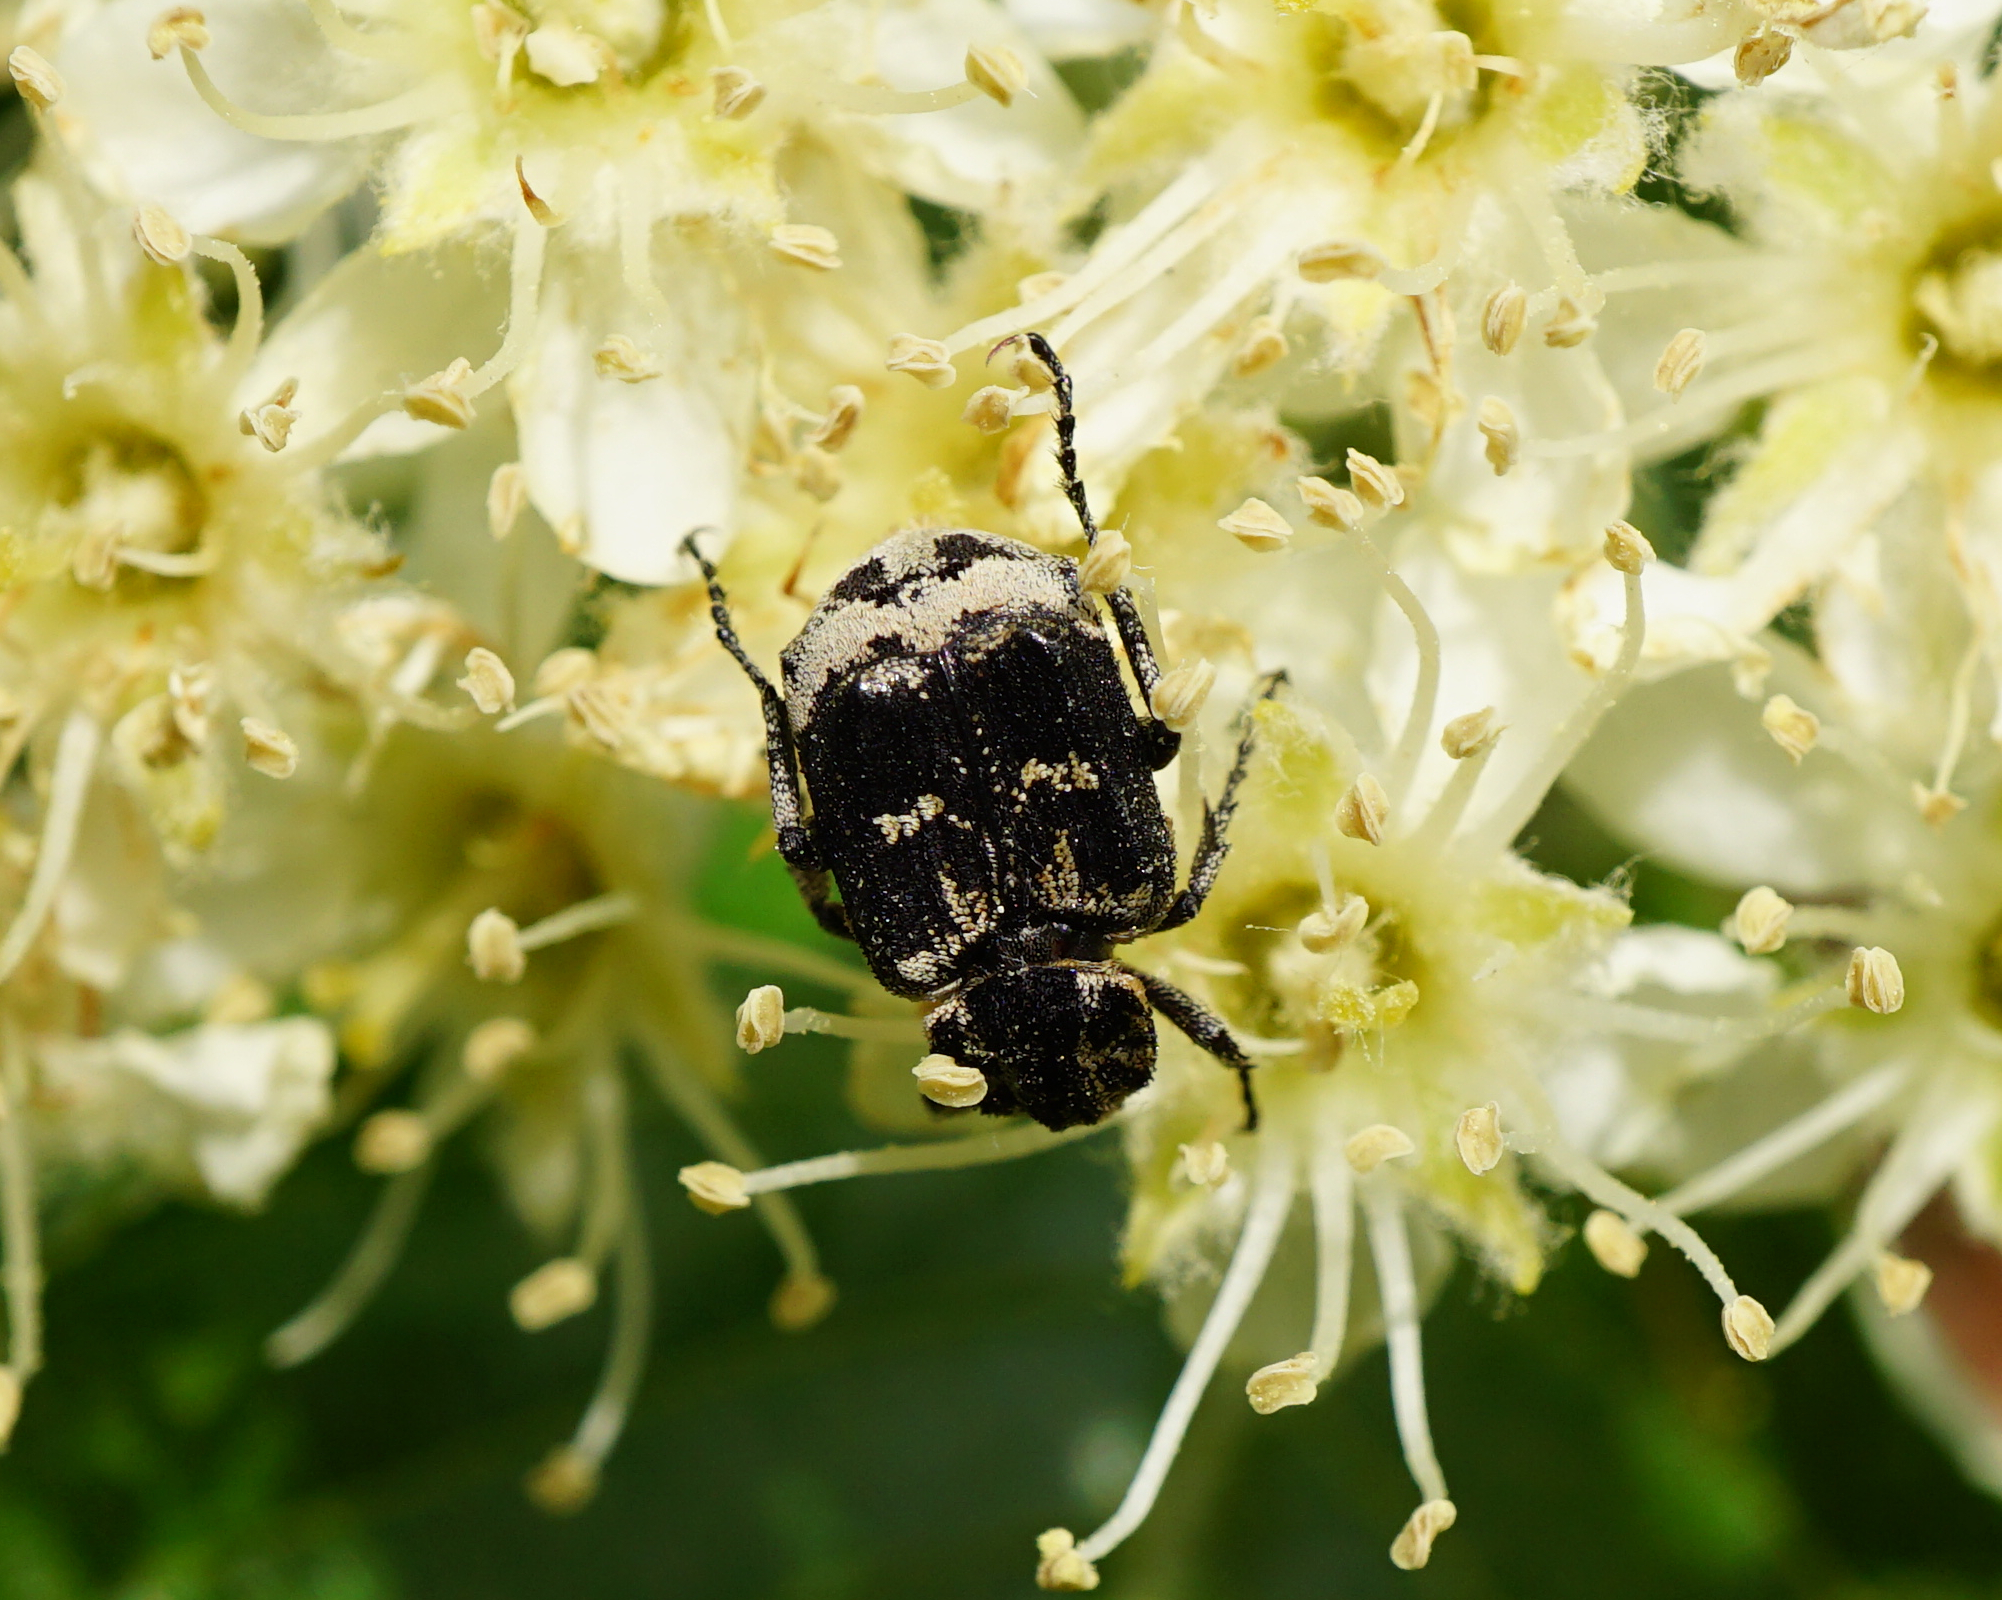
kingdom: Animalia
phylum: Arthropoda
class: Insecta
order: Coleoptera
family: Scarabaeidae
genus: Valgus
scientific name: Valgus hemipterus
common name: Bug flower chafer
